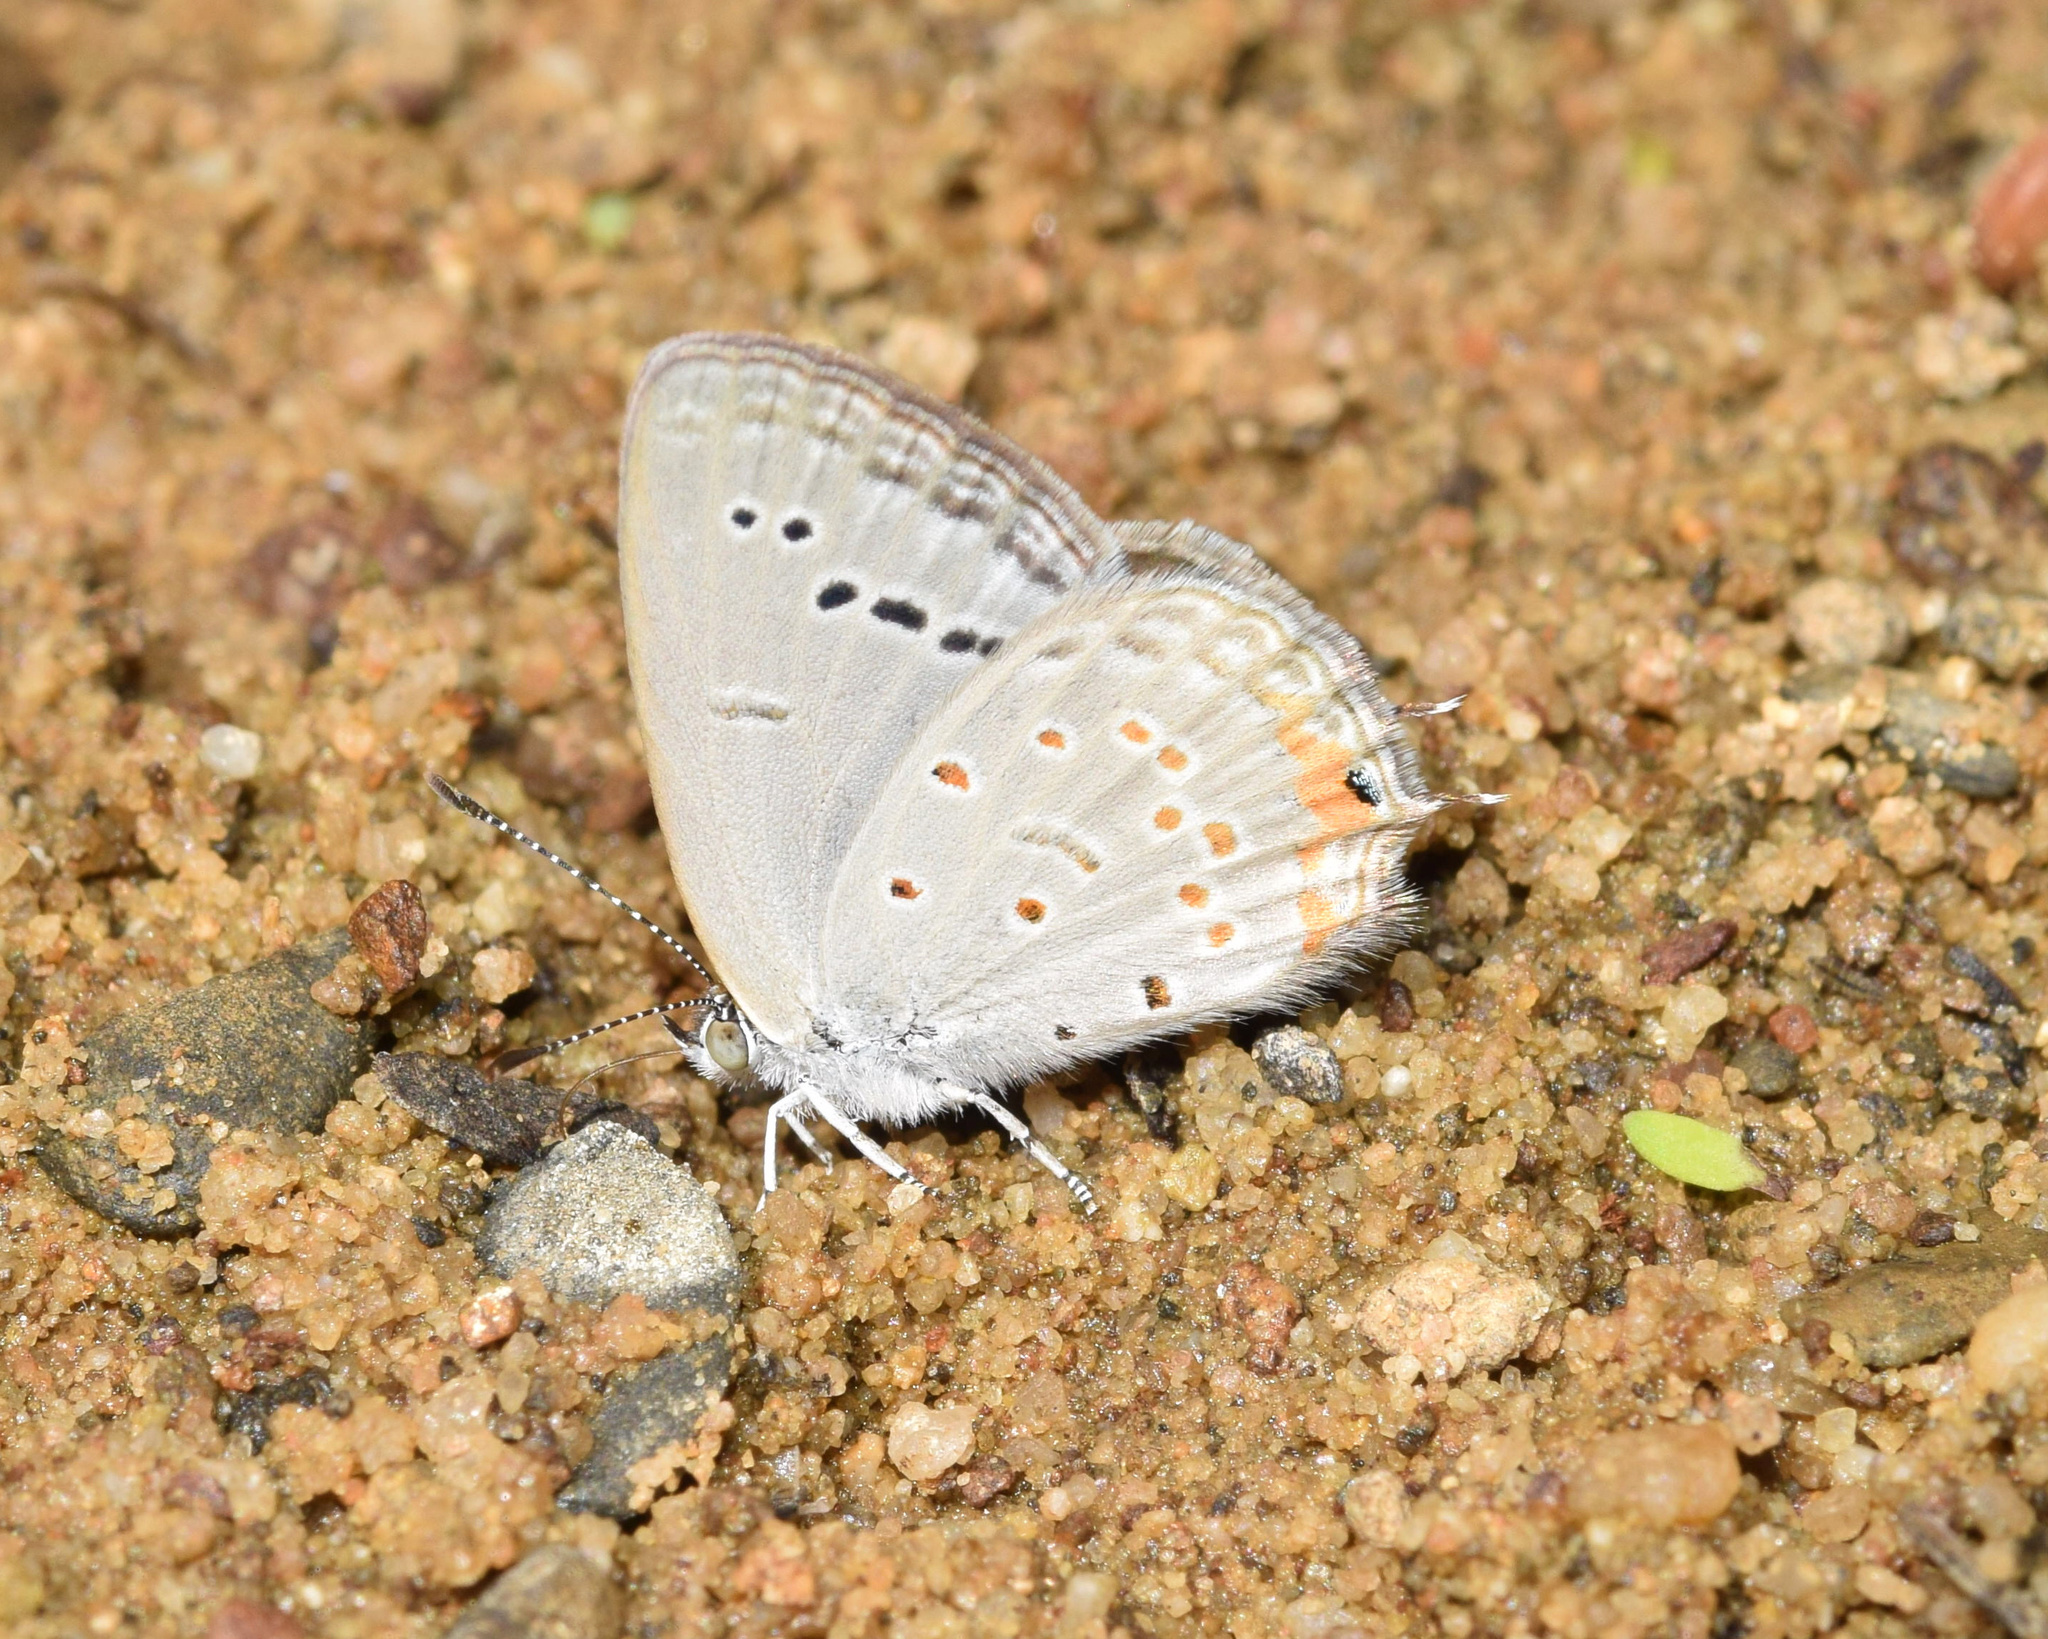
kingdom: Animalia
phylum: Arthropoda
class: Insecta
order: Lepidoptera
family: Lycaenidae
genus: Cupidopsis
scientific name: Cupidopsis jobates
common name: Tailed meadow blue
